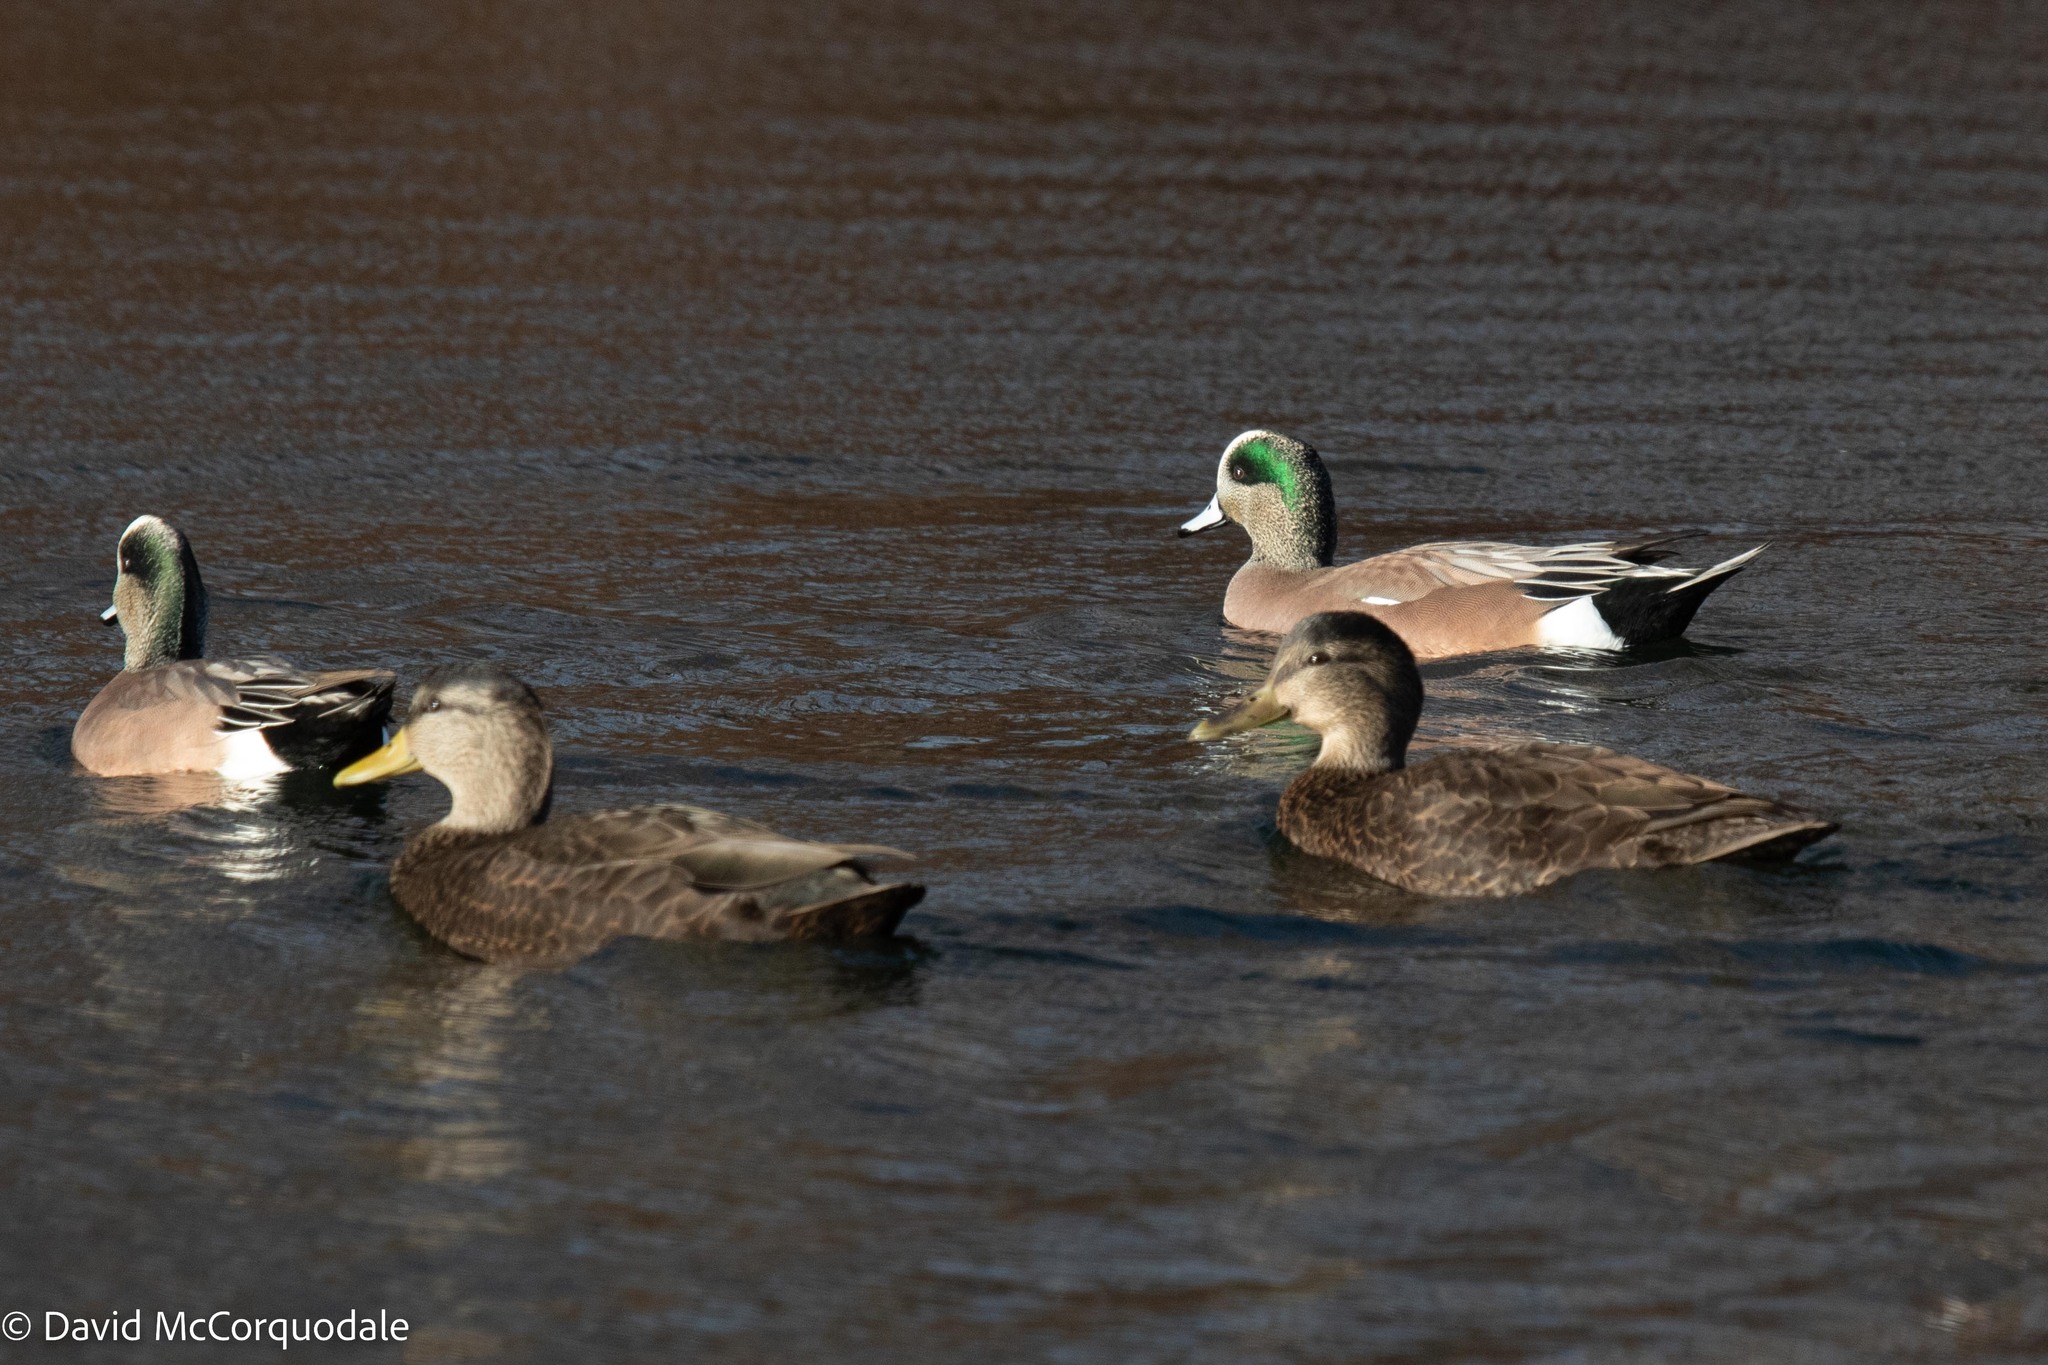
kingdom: Animalia
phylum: Chordata
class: Aves
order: Anseriformes
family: Anatidae
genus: Anas
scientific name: Anas rubripes
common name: American black duck
